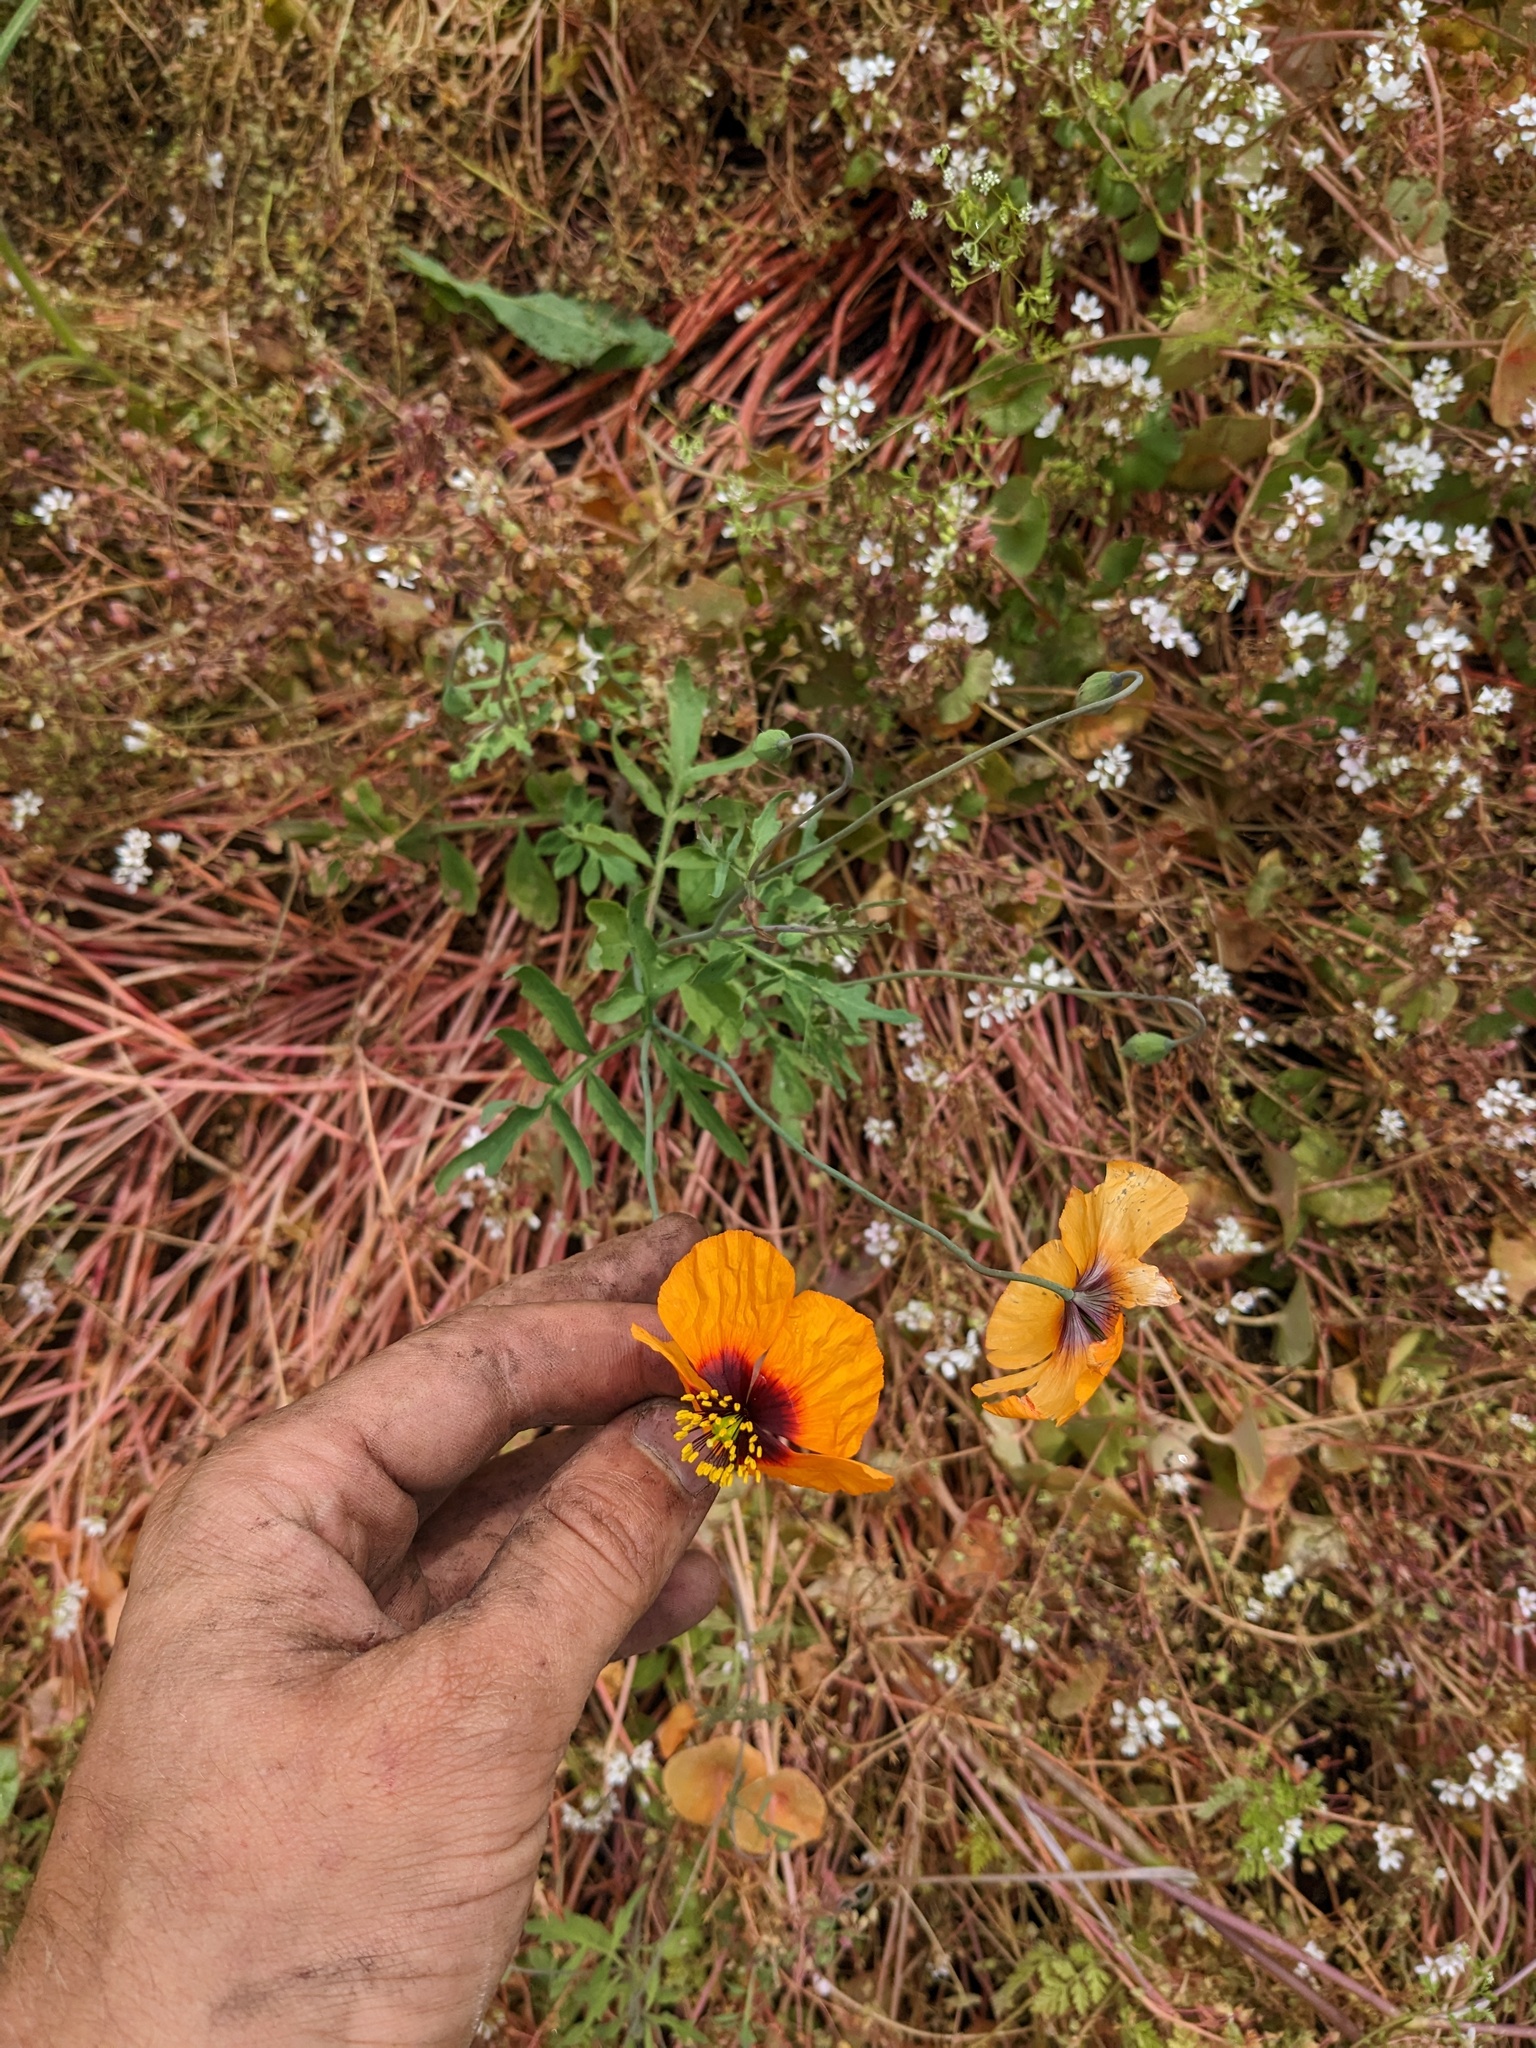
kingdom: Plantae
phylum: Tracheophyta
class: Magnoliopsida
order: Ranunculales
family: Papaveraceae
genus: Stylomecon
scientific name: Stylomecon heterophylla
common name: Flaming-poppy
